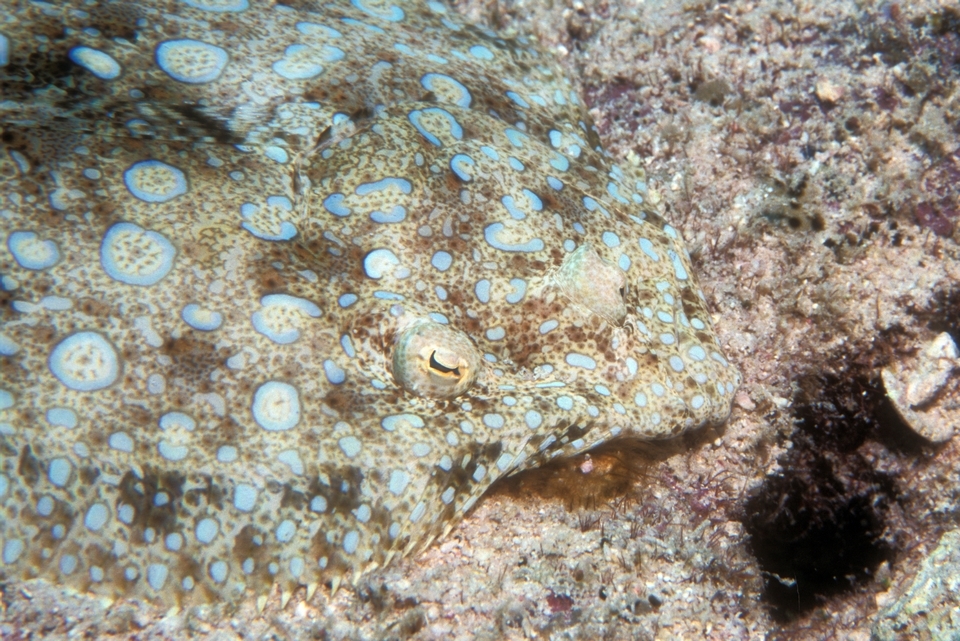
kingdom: Animalia
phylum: Chordata
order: Pleuronectiformes
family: Bothidae
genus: Bothus
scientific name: Bothus lunatus
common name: Peacock flounder
